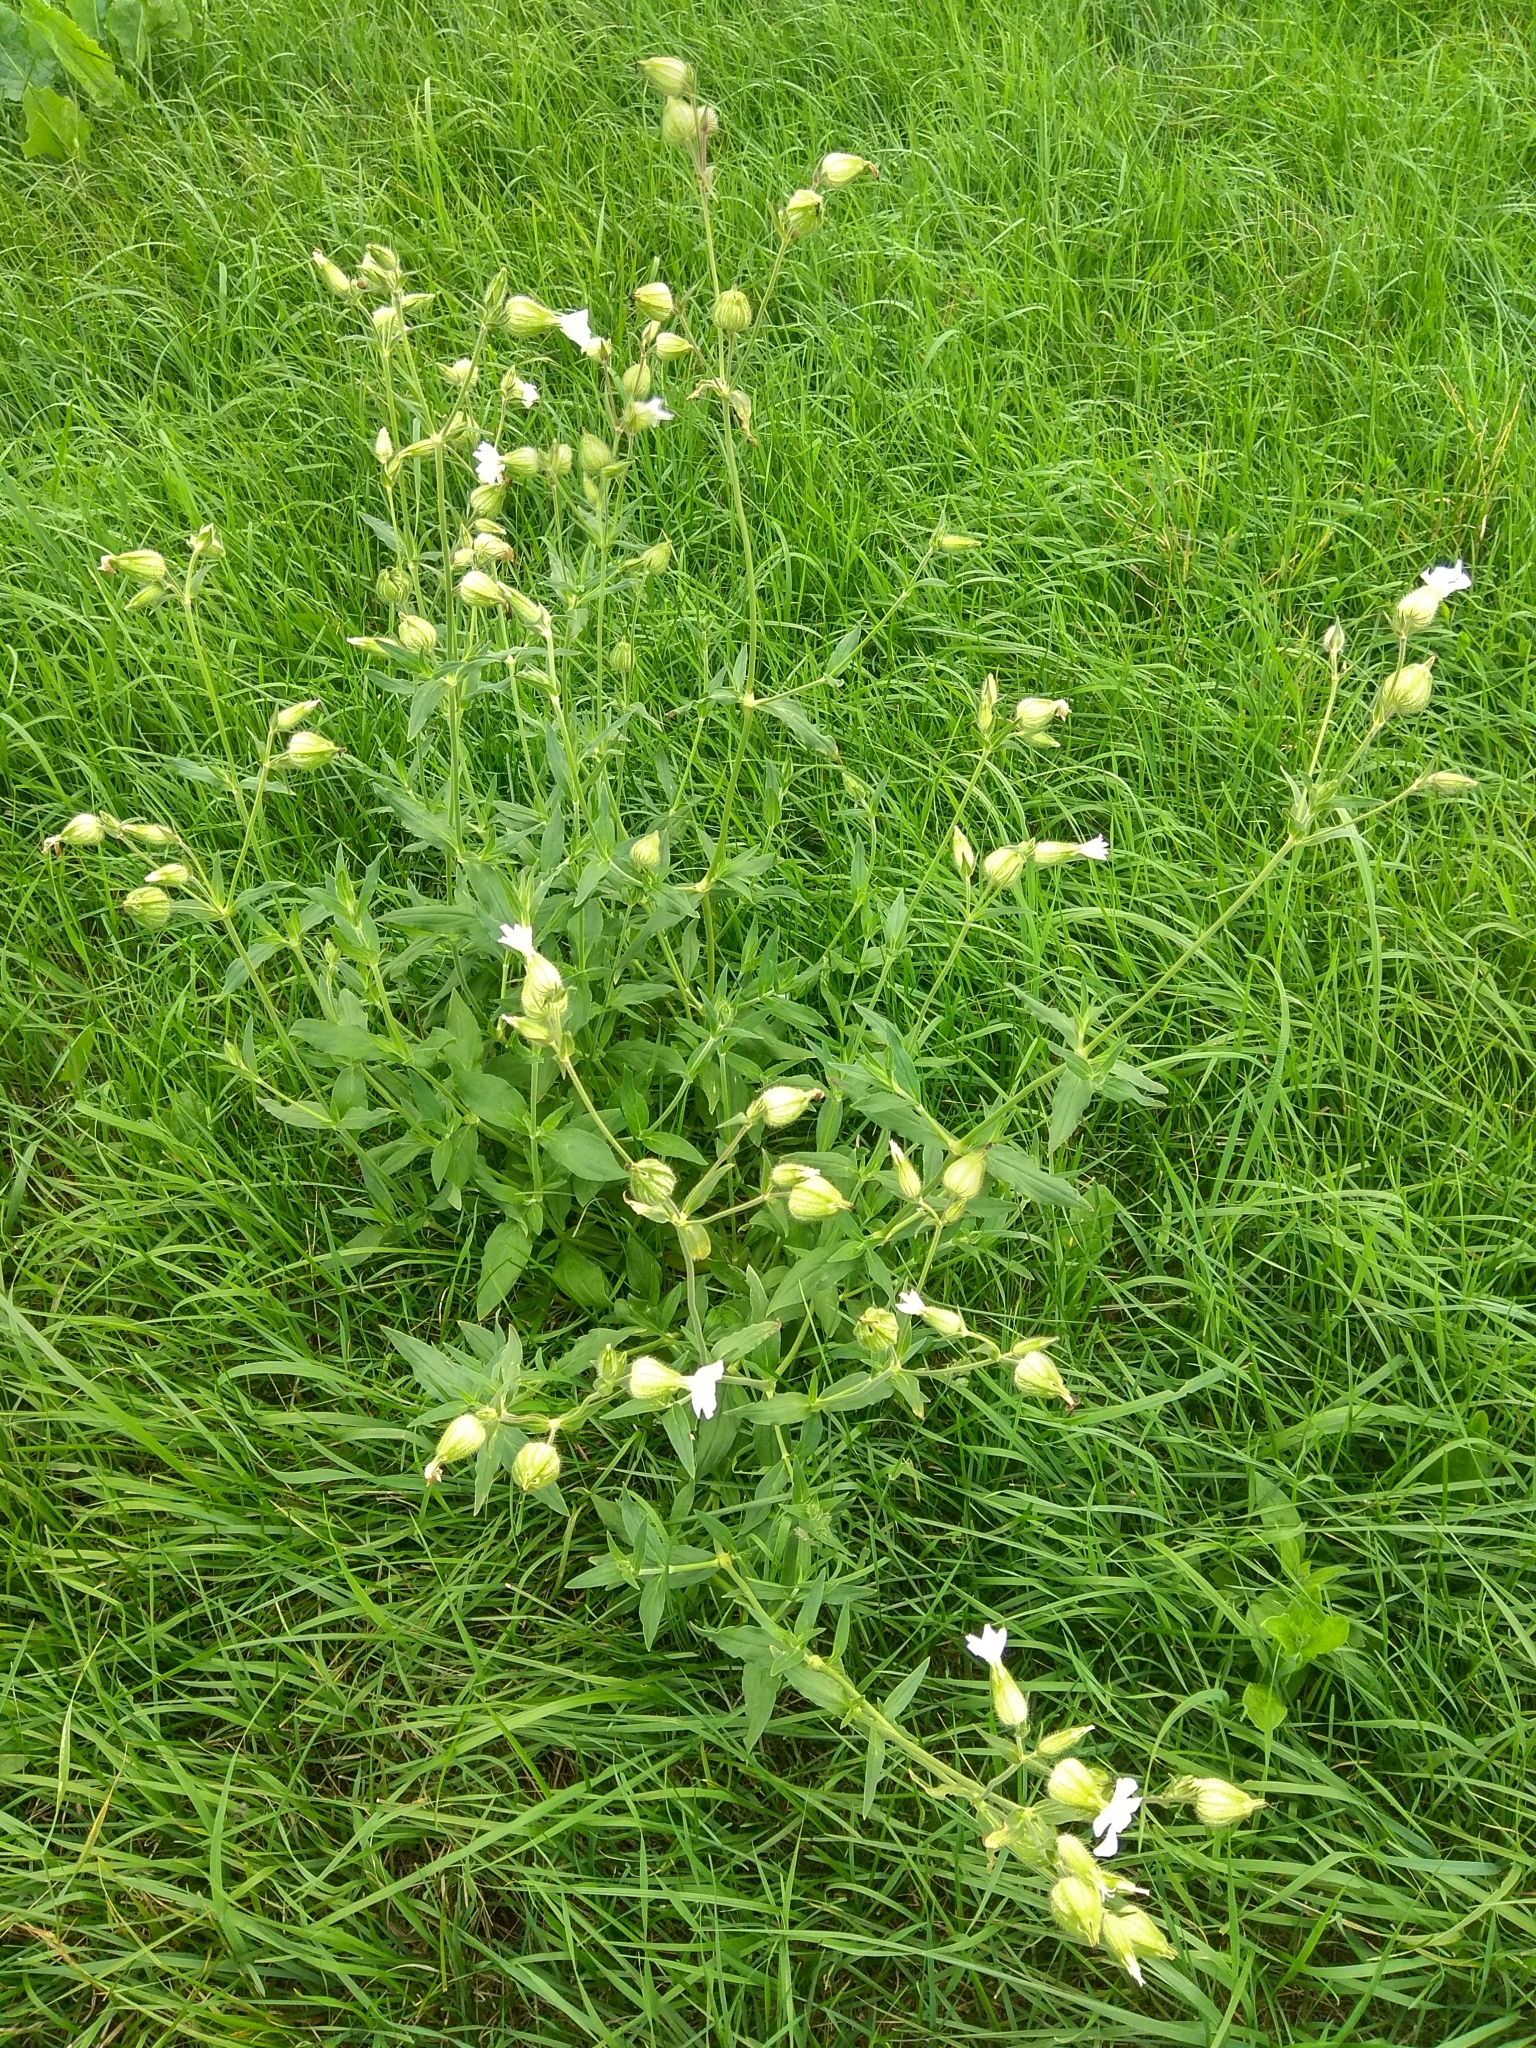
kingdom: Plantae
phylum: Tracheophyta
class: Magnoliopsida
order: Caryophyllales
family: Caryophyllaceae
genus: Silene
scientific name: Silene latifolia
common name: White campion
